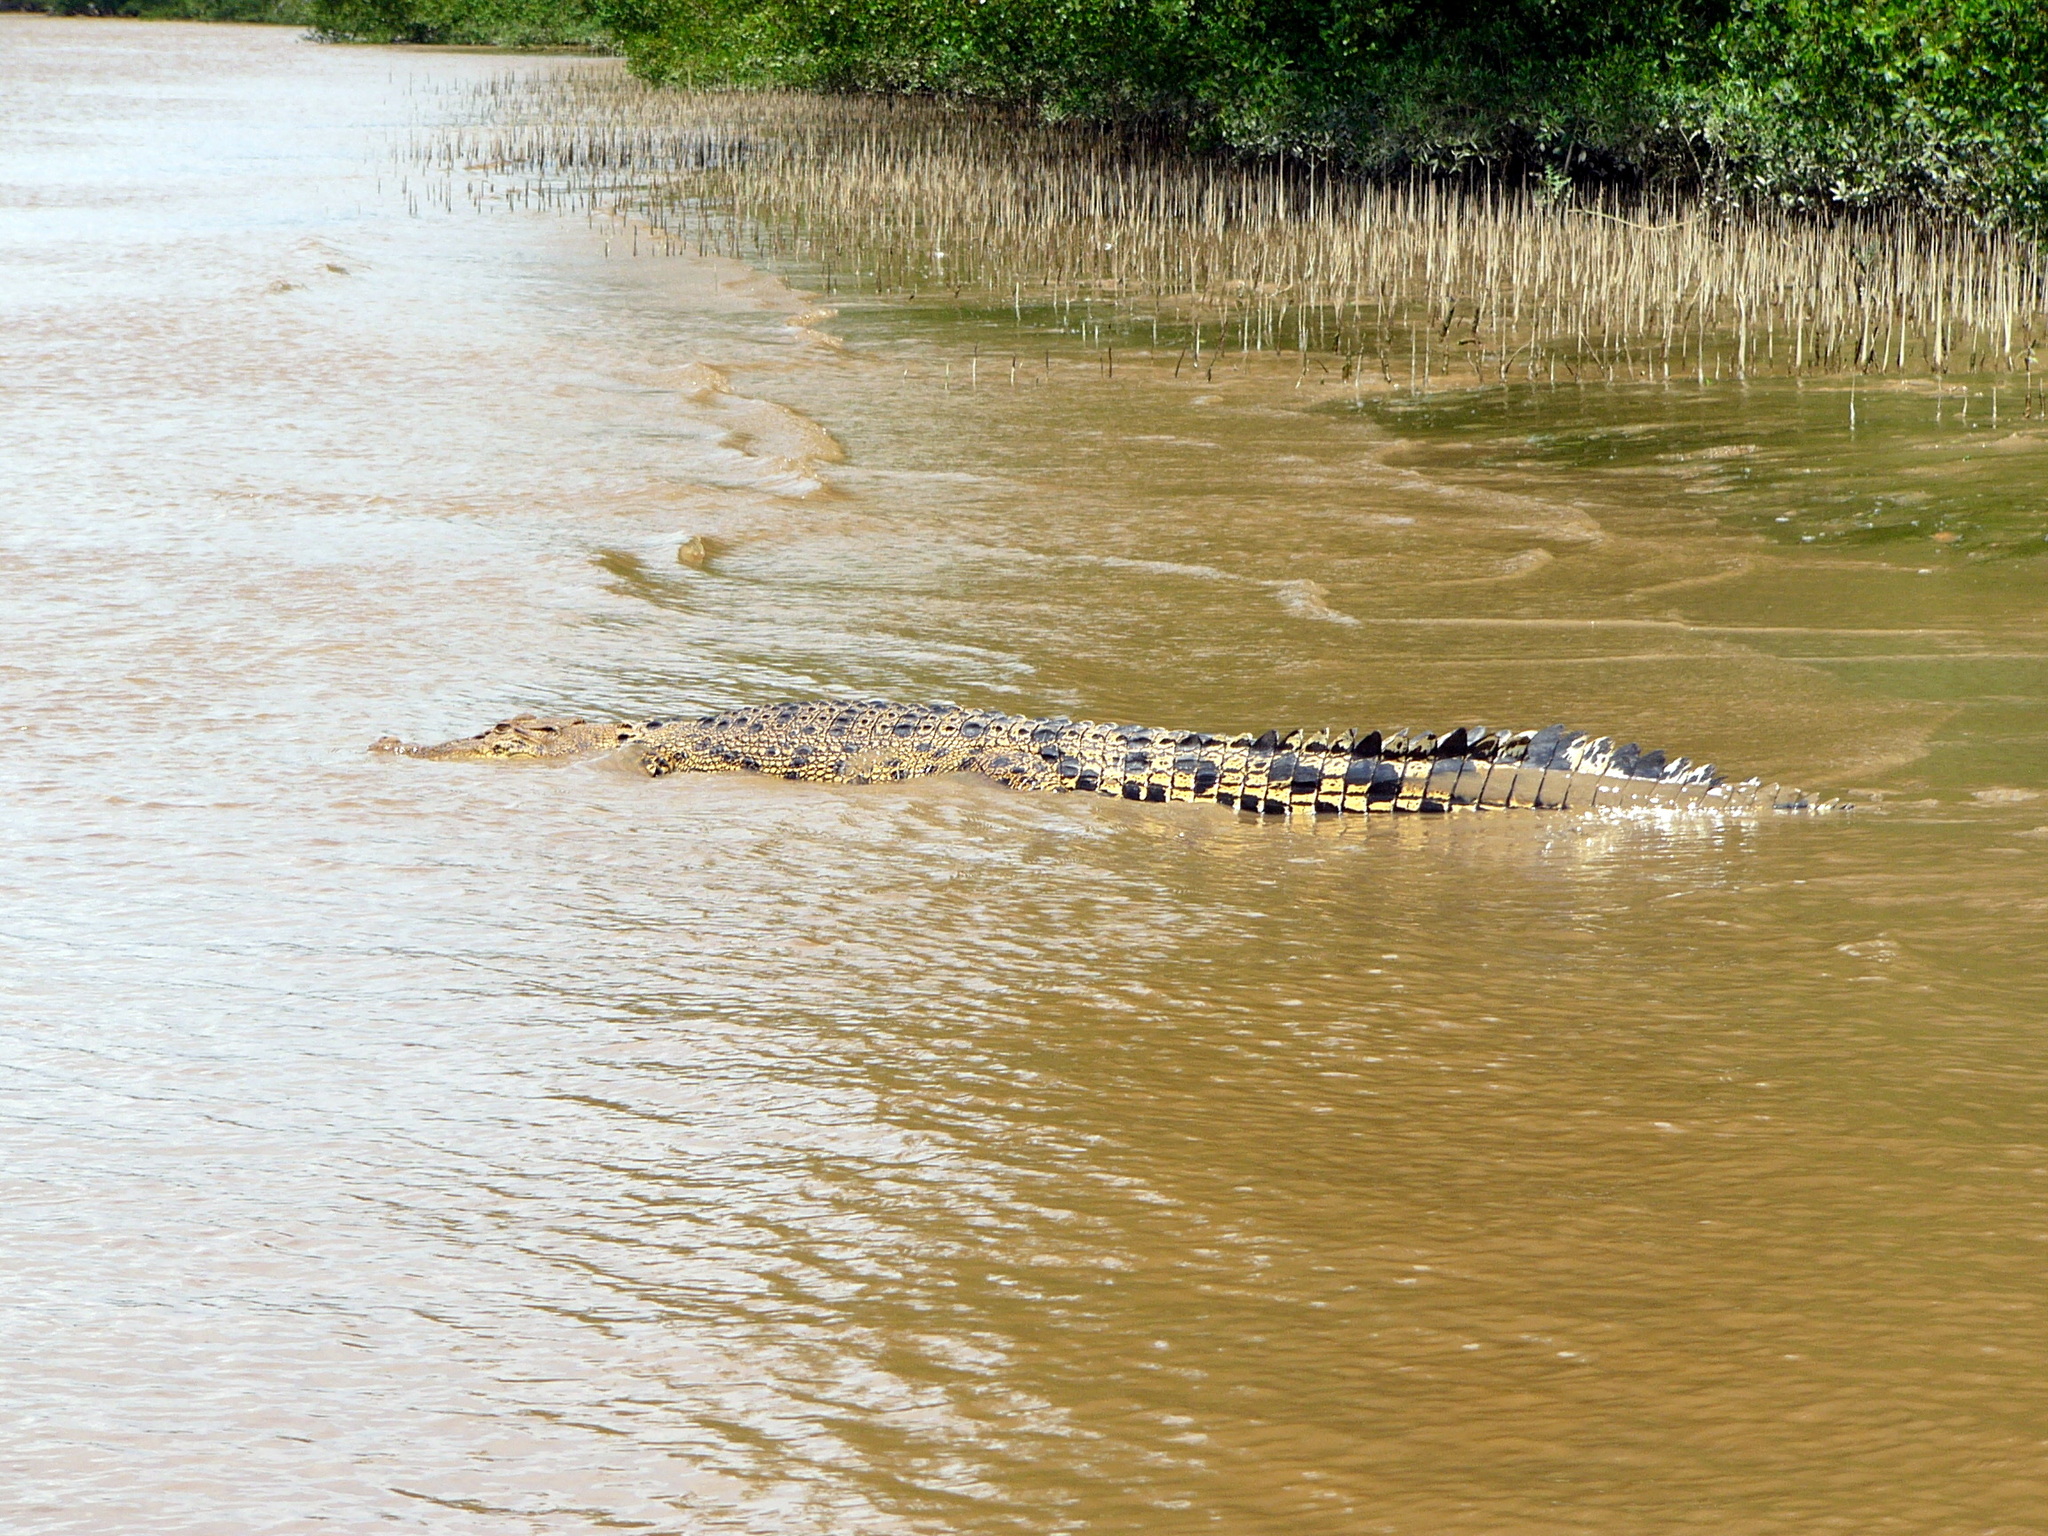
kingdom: Animalia
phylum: Chordata
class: Crocodylia
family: Crocodylidae
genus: Crocodylus
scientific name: Crocodylus porosus
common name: Saltwater crocodile
